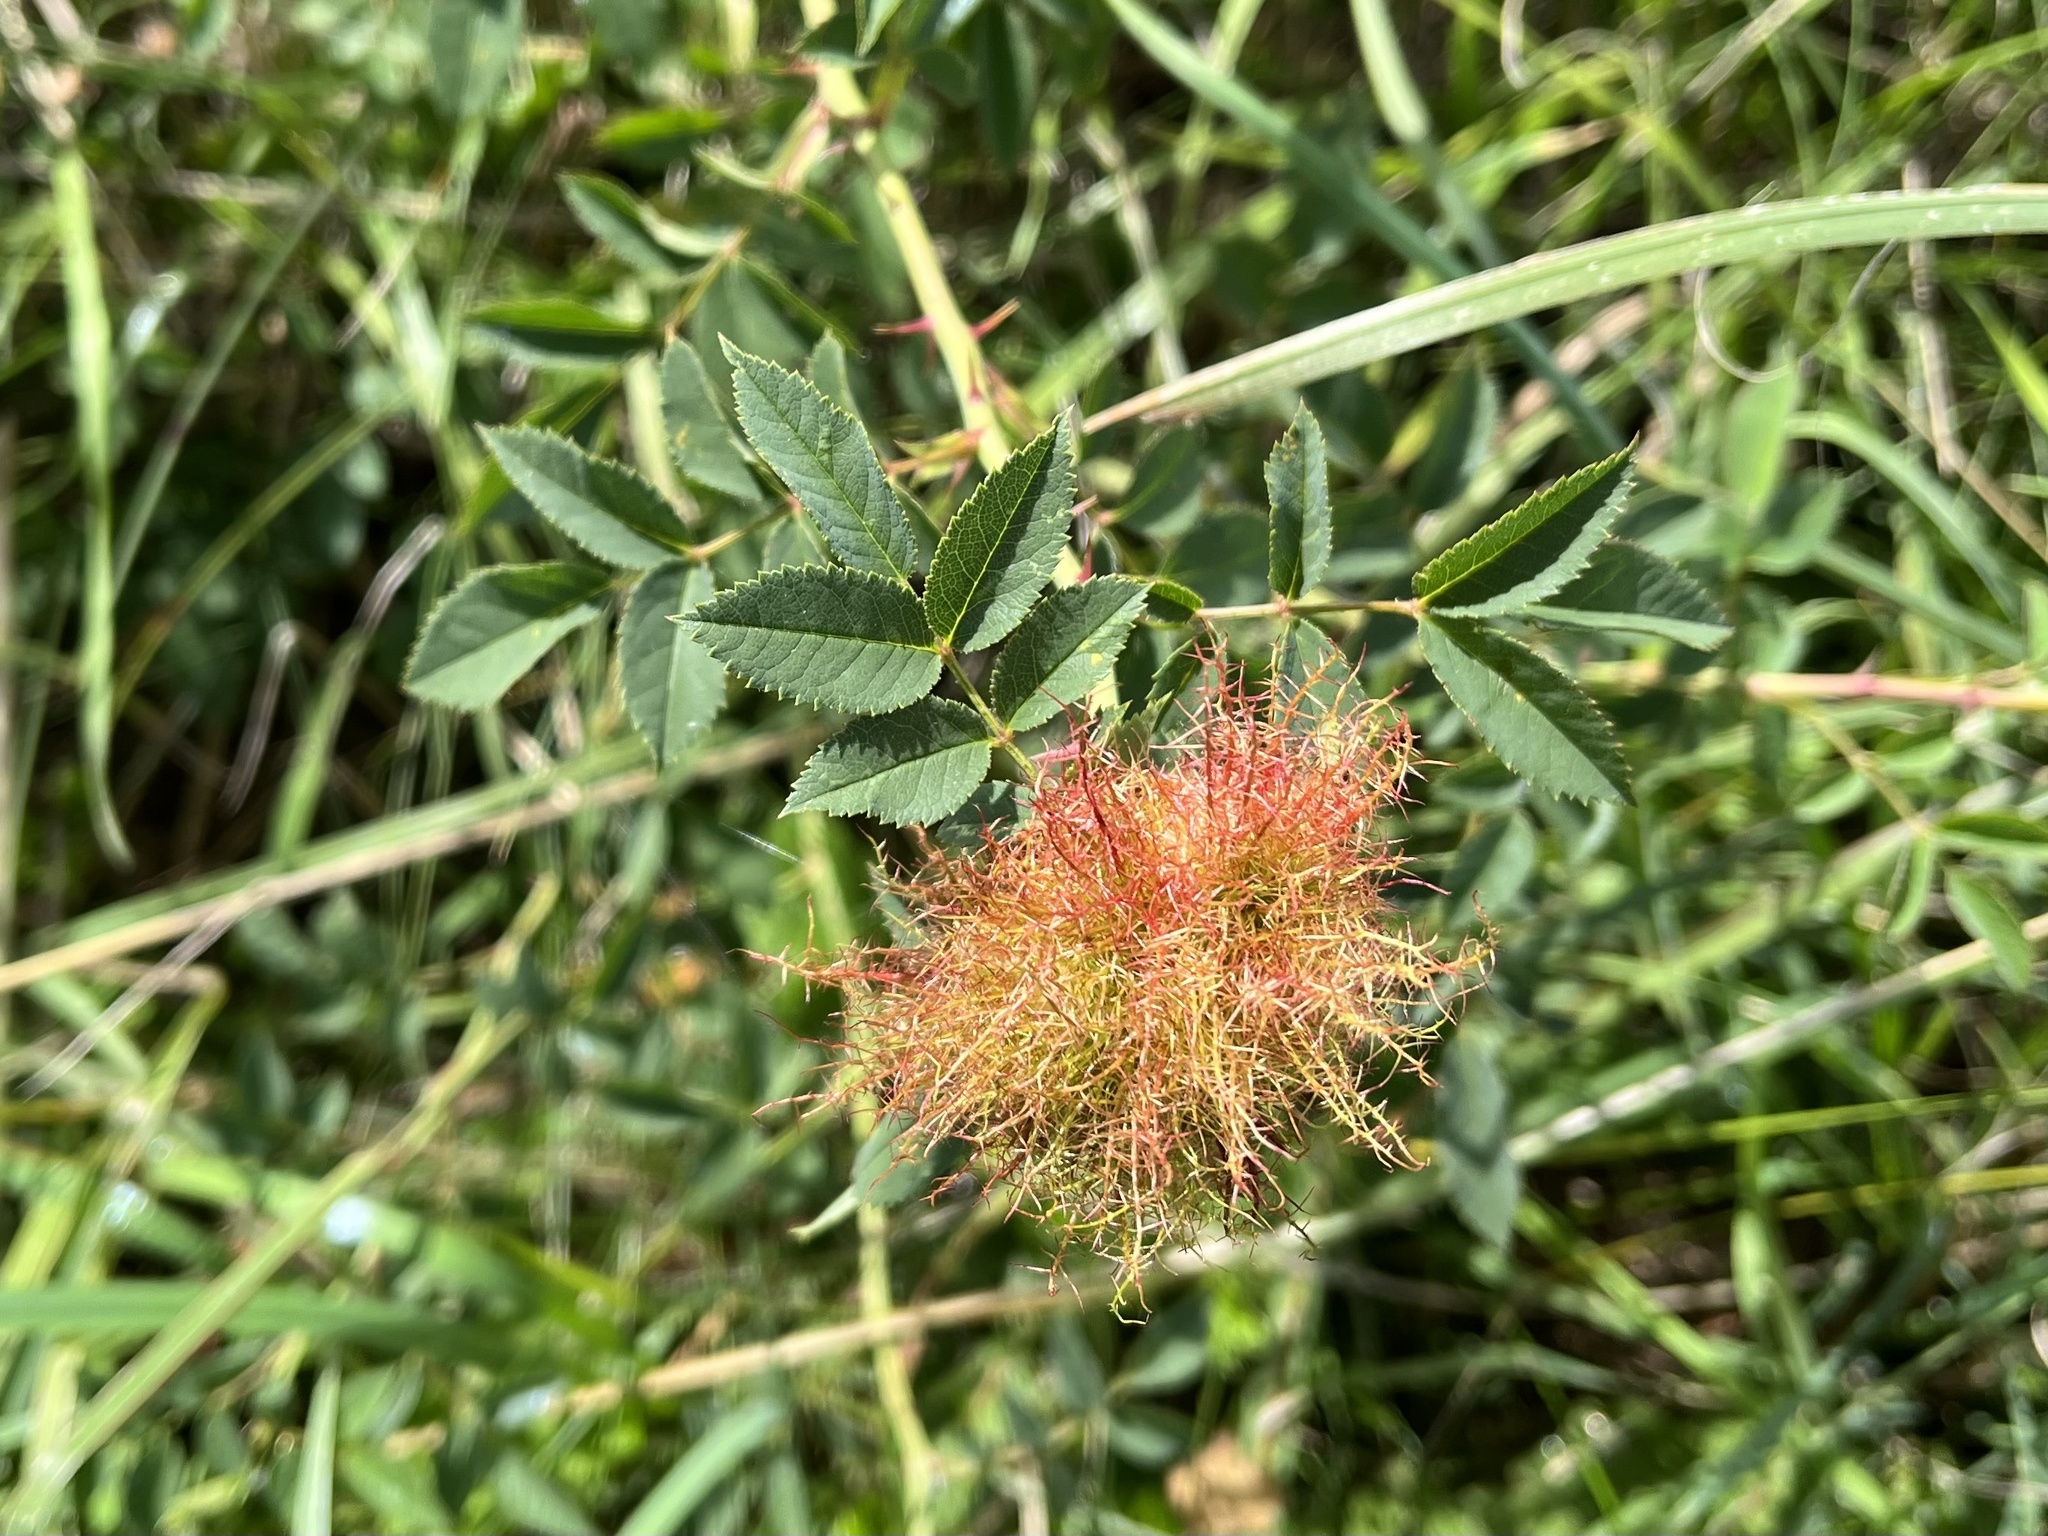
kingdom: Animalia
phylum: Arthropoda
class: Insecta
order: Hymenoptera
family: Cynipidae
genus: Diplolepis
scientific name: Diplolepis rosae
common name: Bedeguar gall
